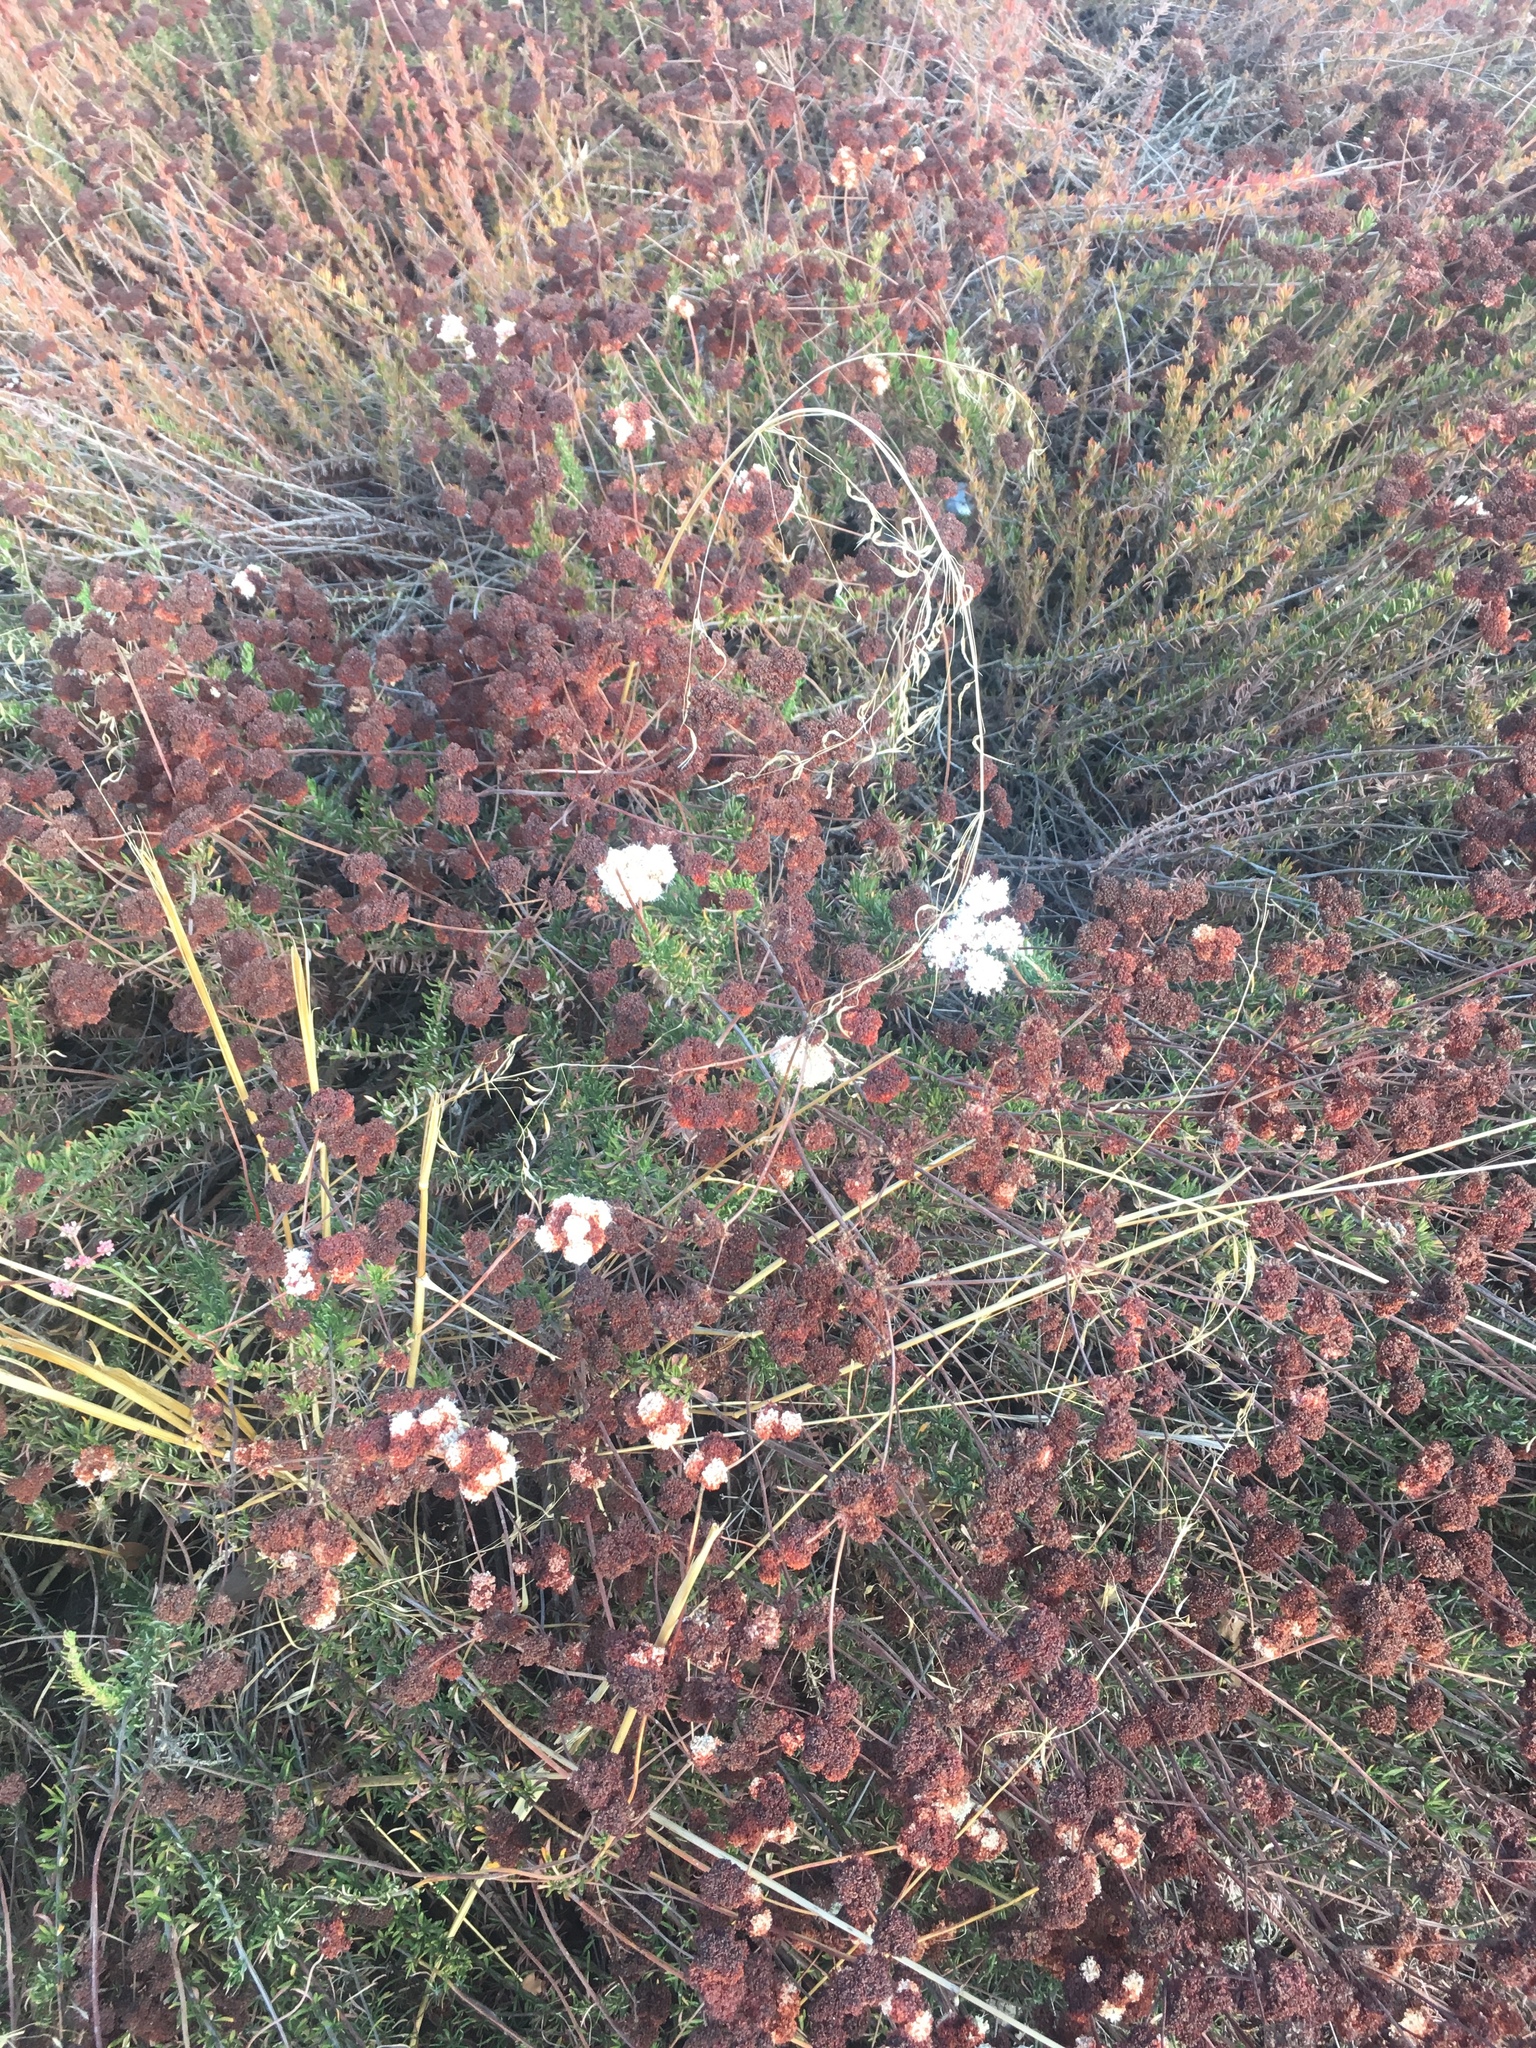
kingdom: Plantae
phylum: Tracheophyta
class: Magnoliopsida
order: Caryophyllales
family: Polygonaceae
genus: Eriogonum
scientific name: Eriogonum fasciculatum
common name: California wild buckwheat
